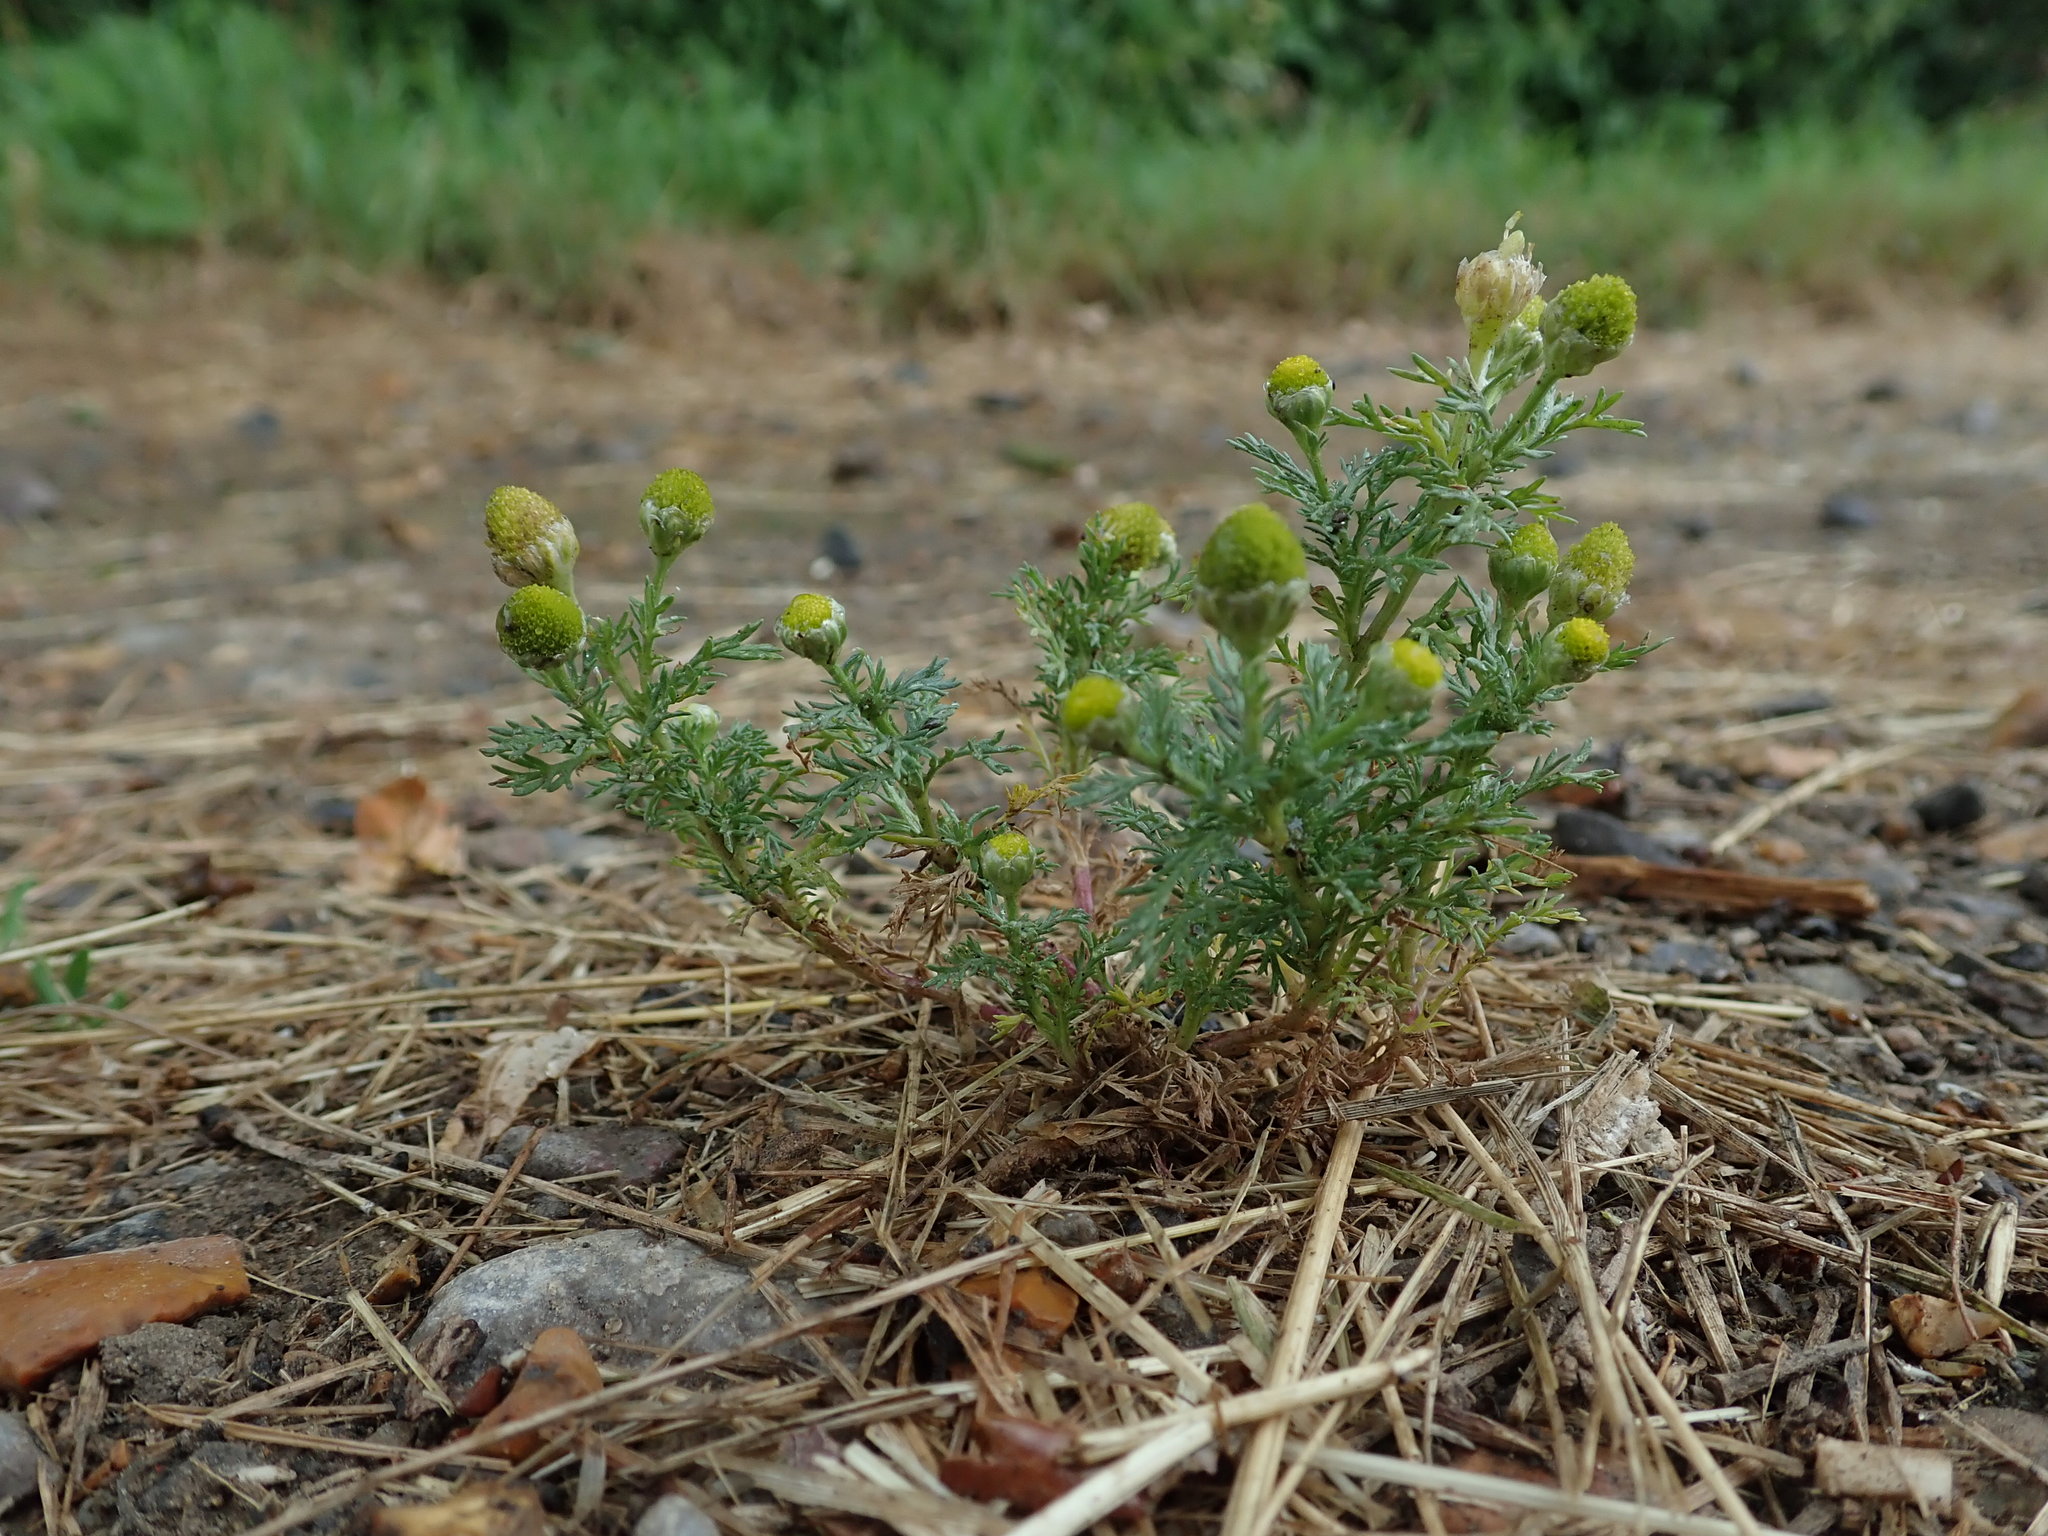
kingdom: Plantae
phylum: Tracheophyta
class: Magnoliopsida
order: Asterales
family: Asteraceae
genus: Matricaria
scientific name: Matricaria discoidea
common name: Disc mayweed
